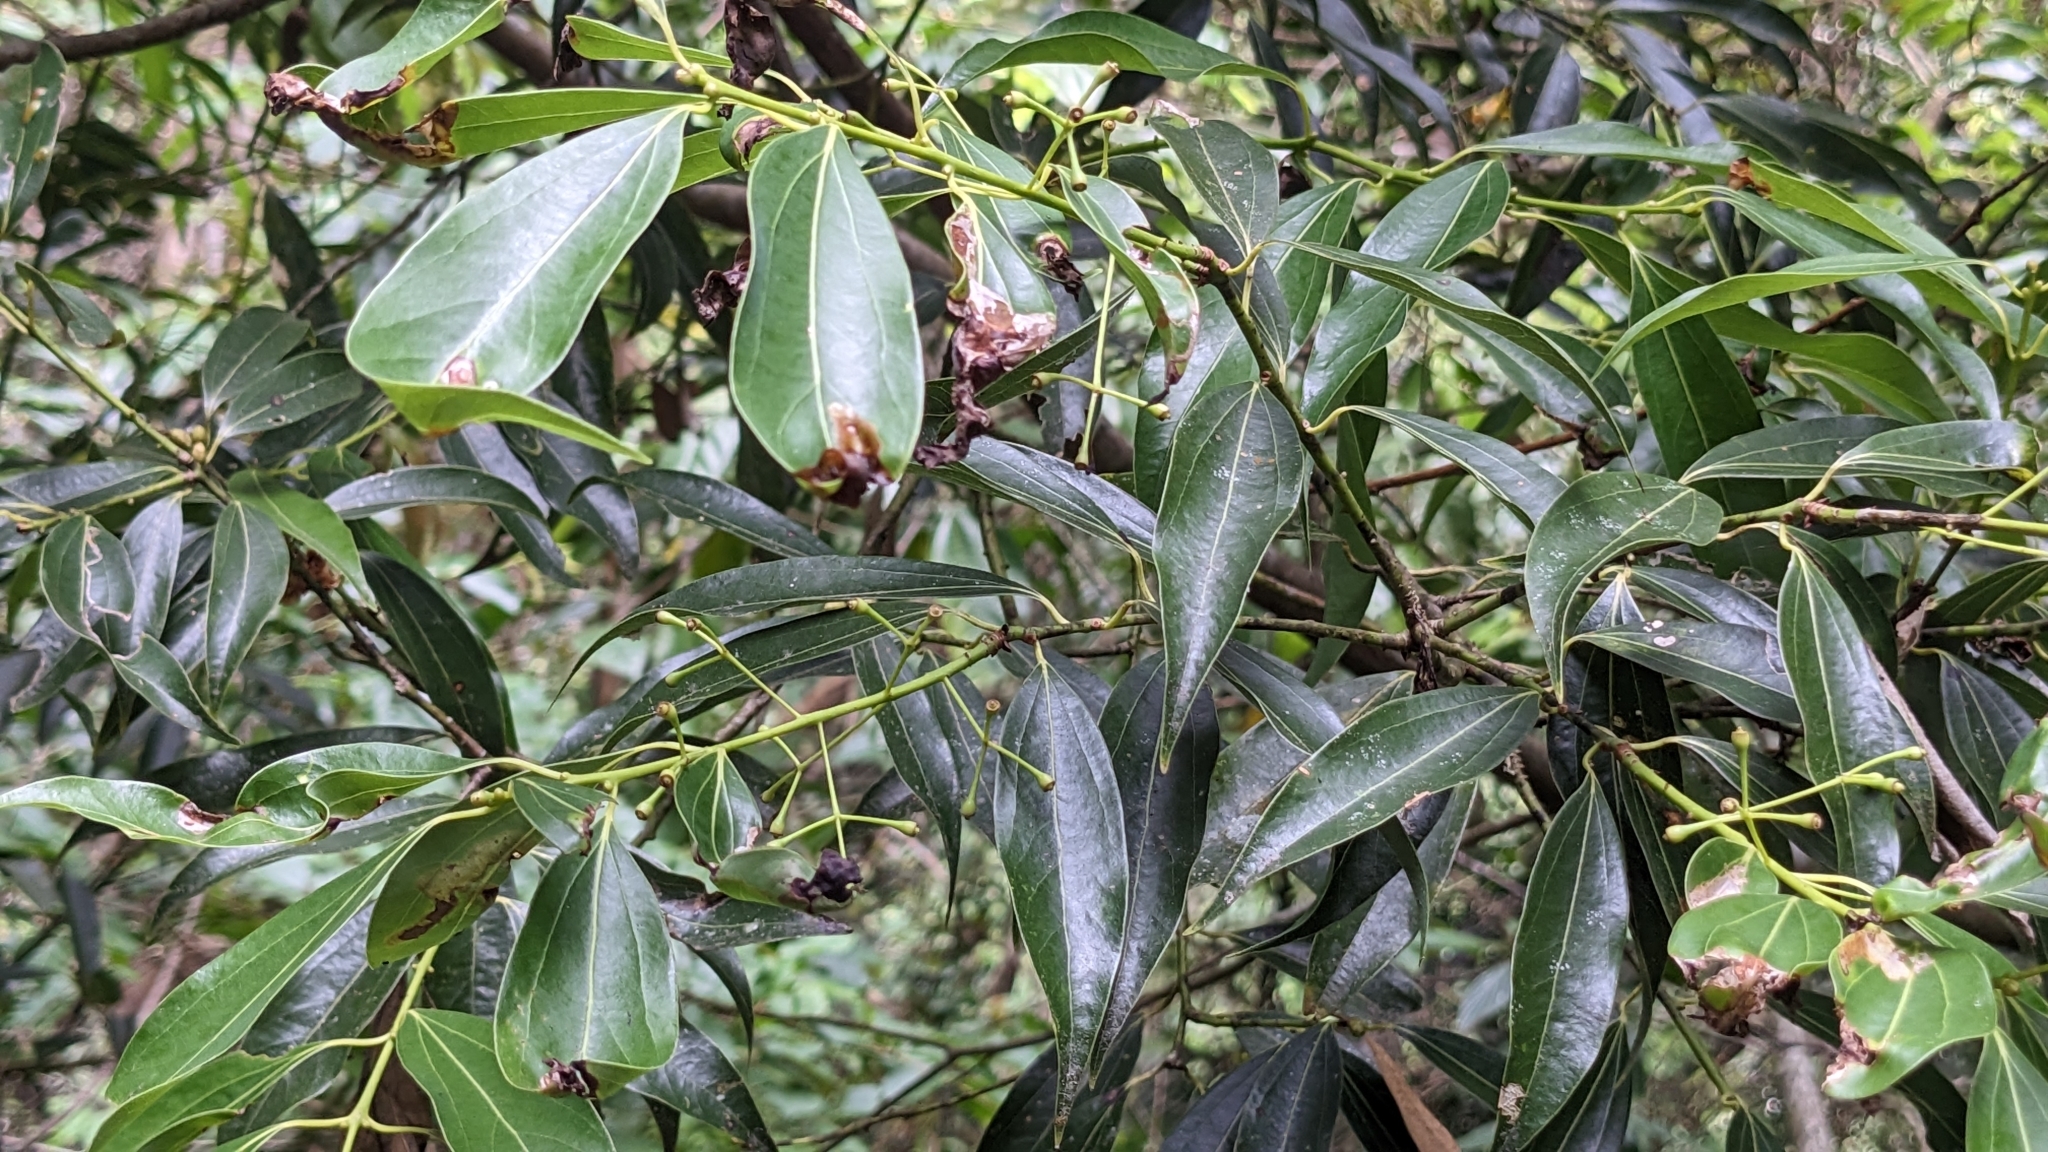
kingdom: Plantae
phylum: Tracheophyta
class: Magnoliopsida
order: Laurales
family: Lauraceae
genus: Cinnamomum
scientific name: Cinnamomum chekiangense
